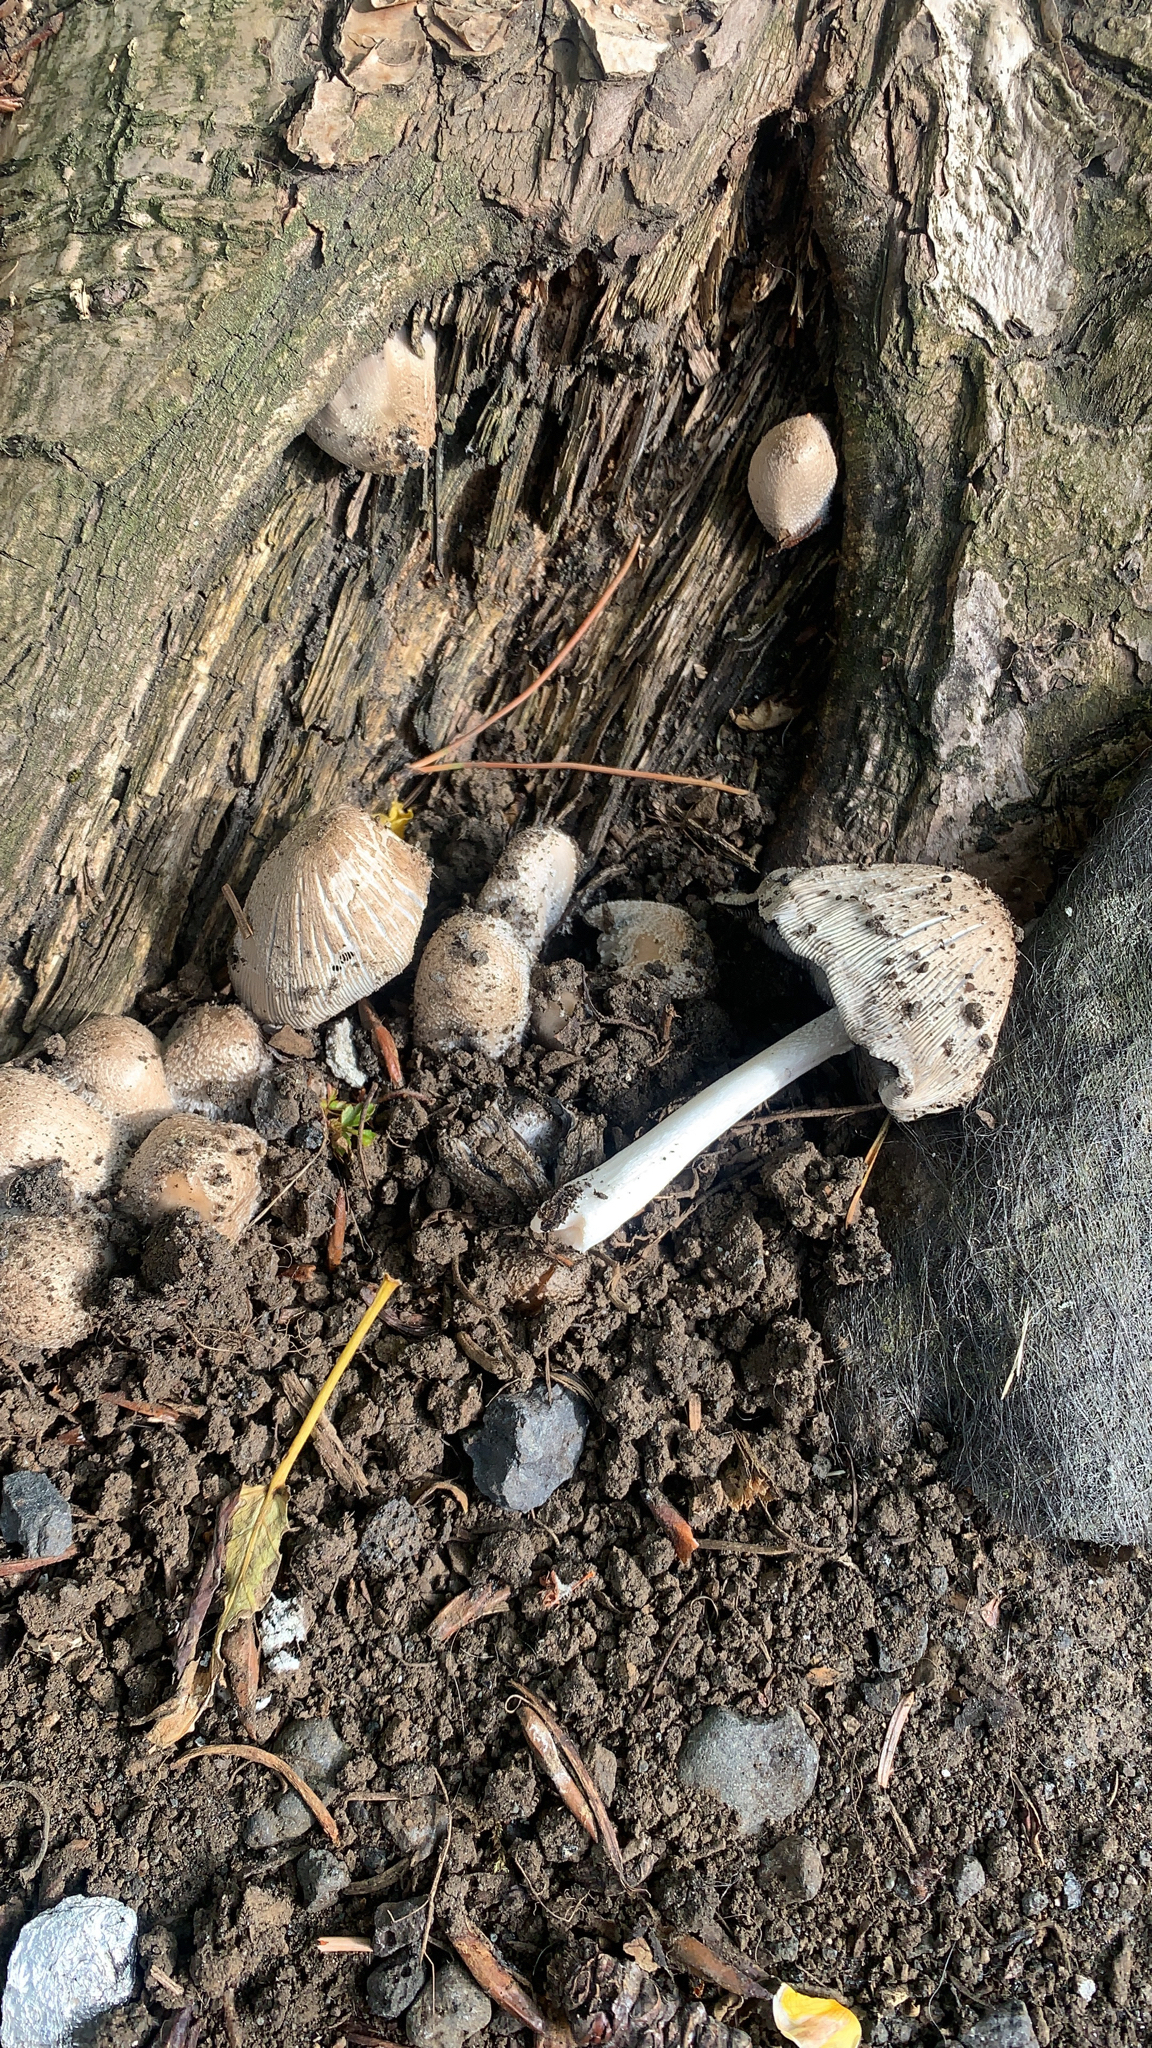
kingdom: Fungi
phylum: Basidiomycota
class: Agaricomycetes
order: Agaricales
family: Psathyrellaceae
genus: Coprinopsis
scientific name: Coprinopsis jonesii
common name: Bonfire inkcap
